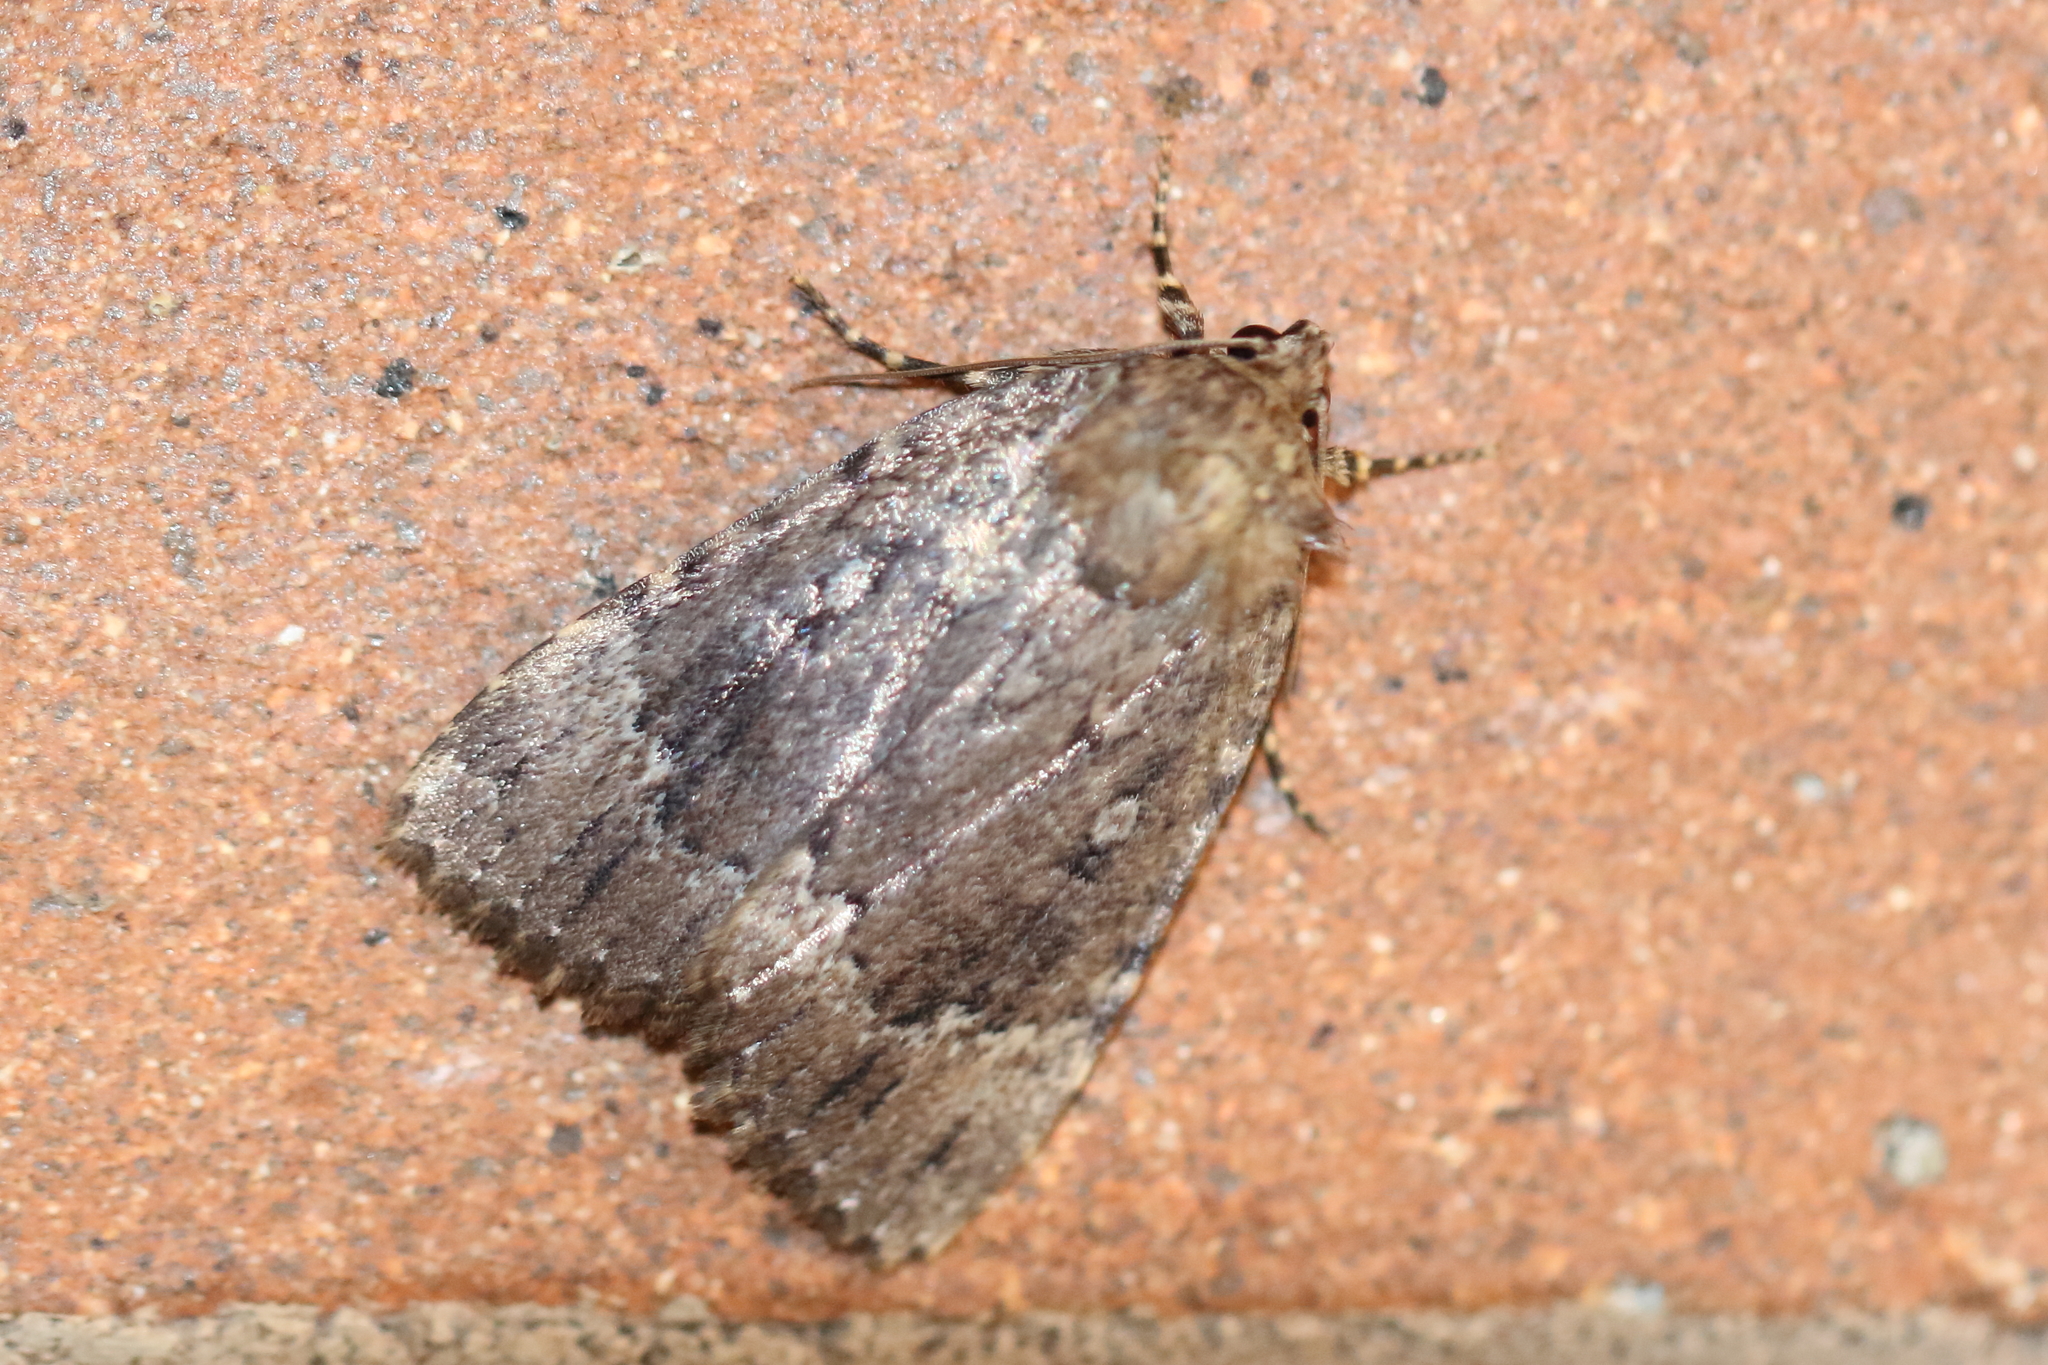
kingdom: Animalia
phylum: Arthropoda
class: Insecta
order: Lepidoptera
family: Noctuidae
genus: Amphipyra
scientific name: Amphipyra pyramidoides
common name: American copper underwing
